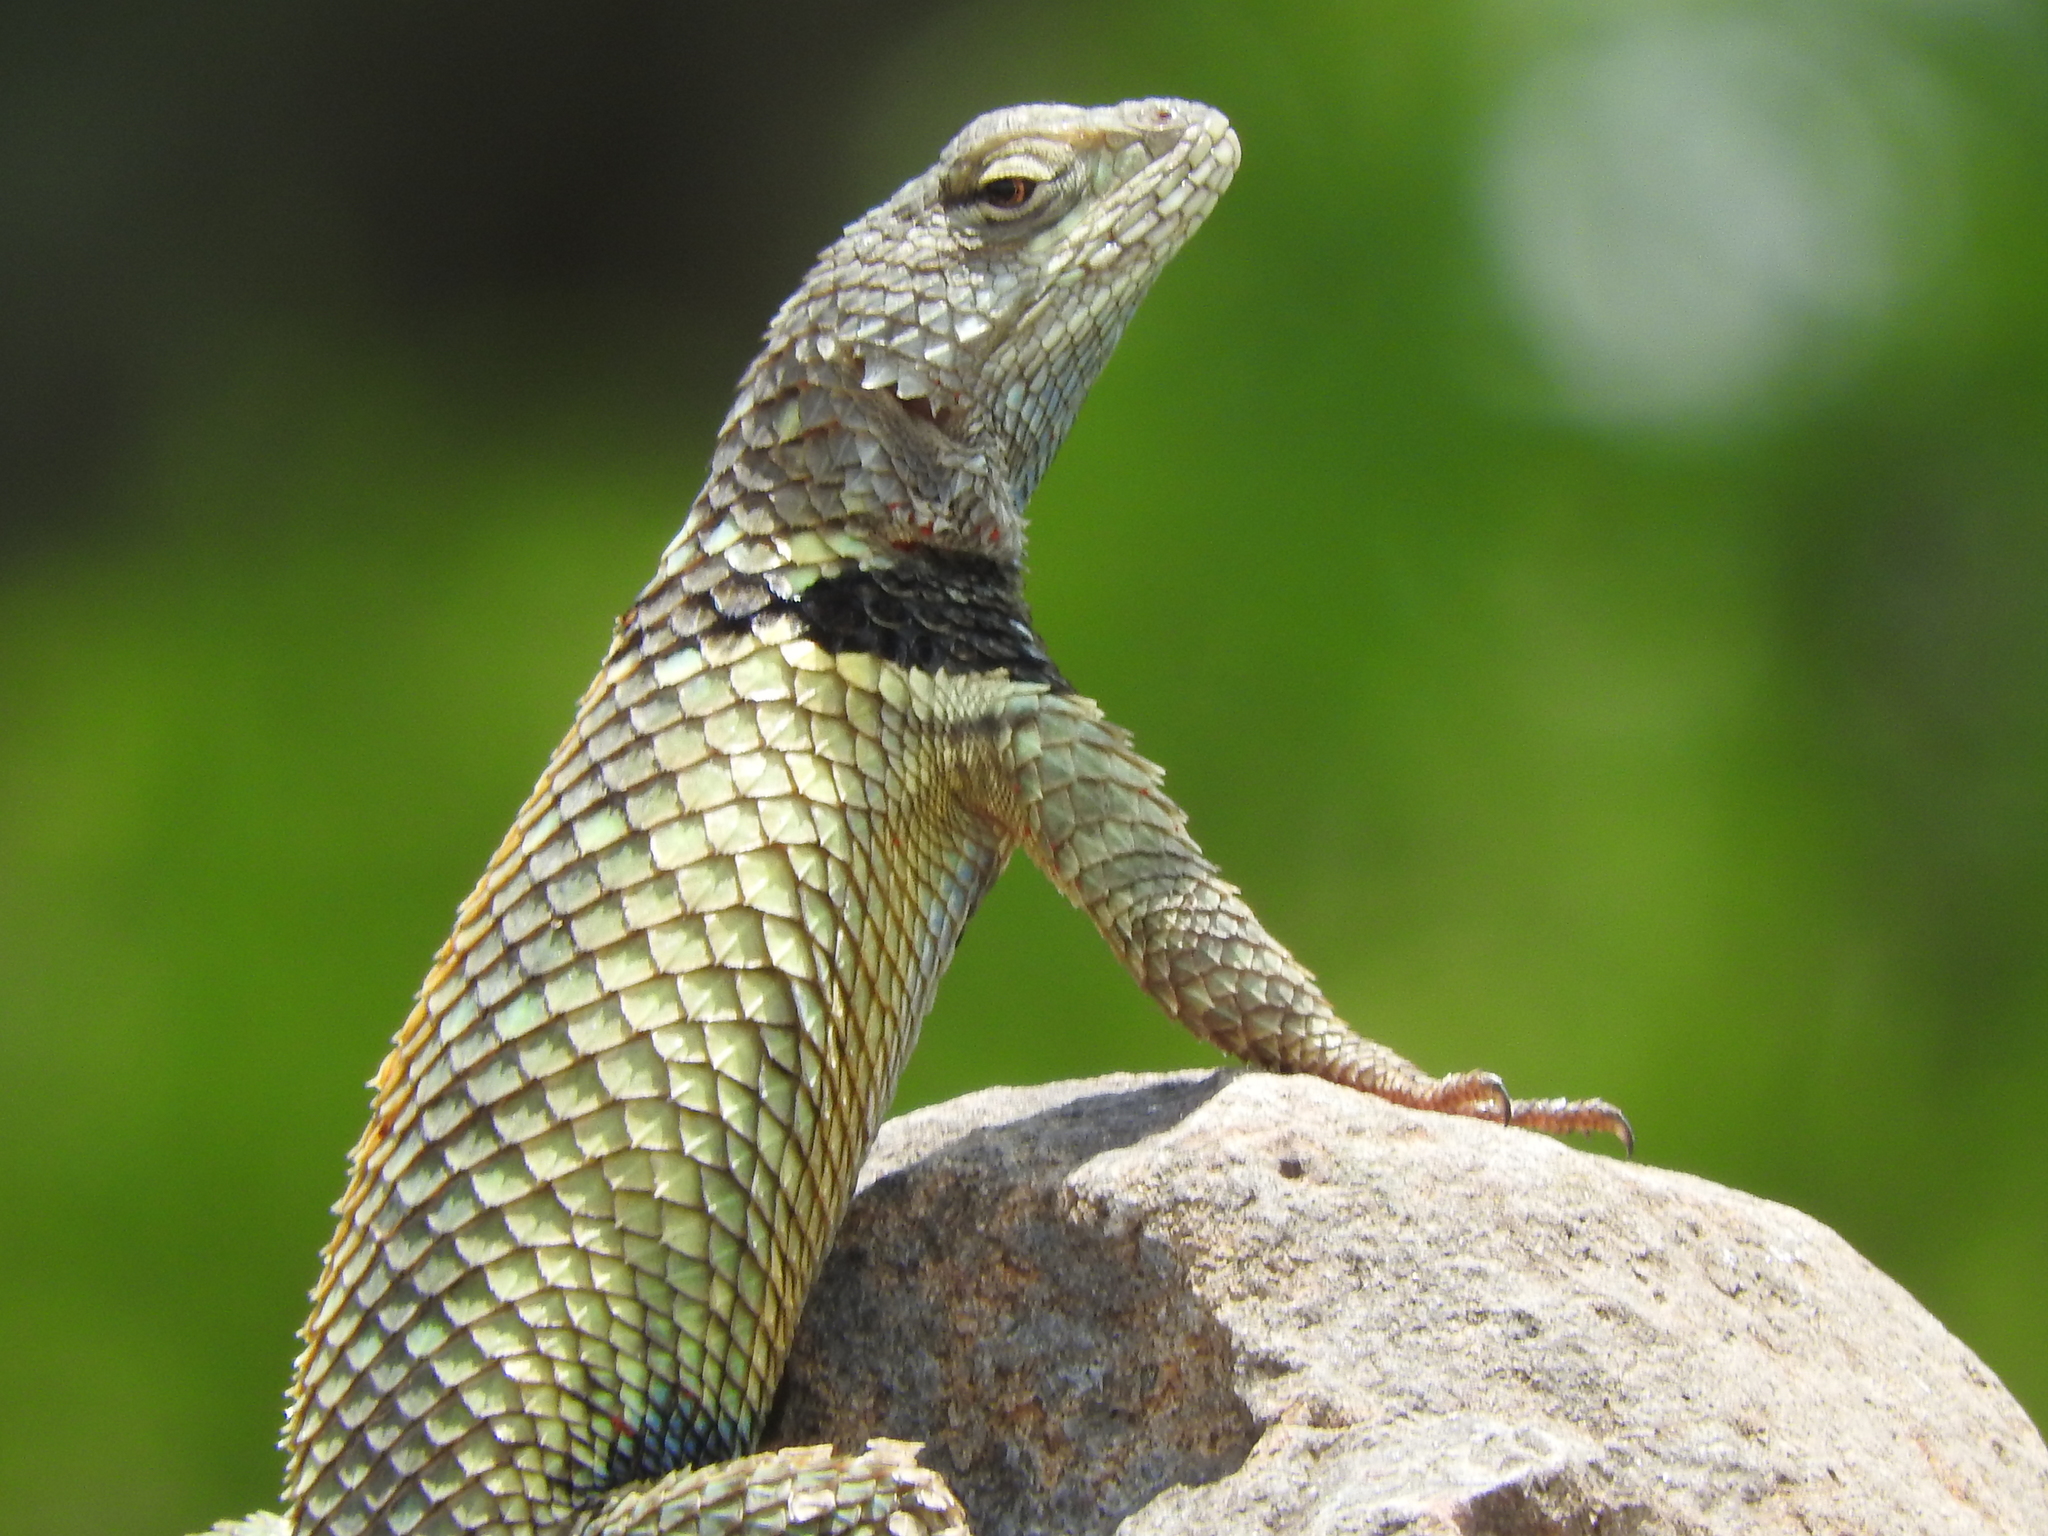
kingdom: Animalia
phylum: Chordata
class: Squamata
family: Phrynosomatidae
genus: Sceloporus
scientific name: Sceloporus torquatus
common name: Central plateau torquate lizard [melanogaster]
